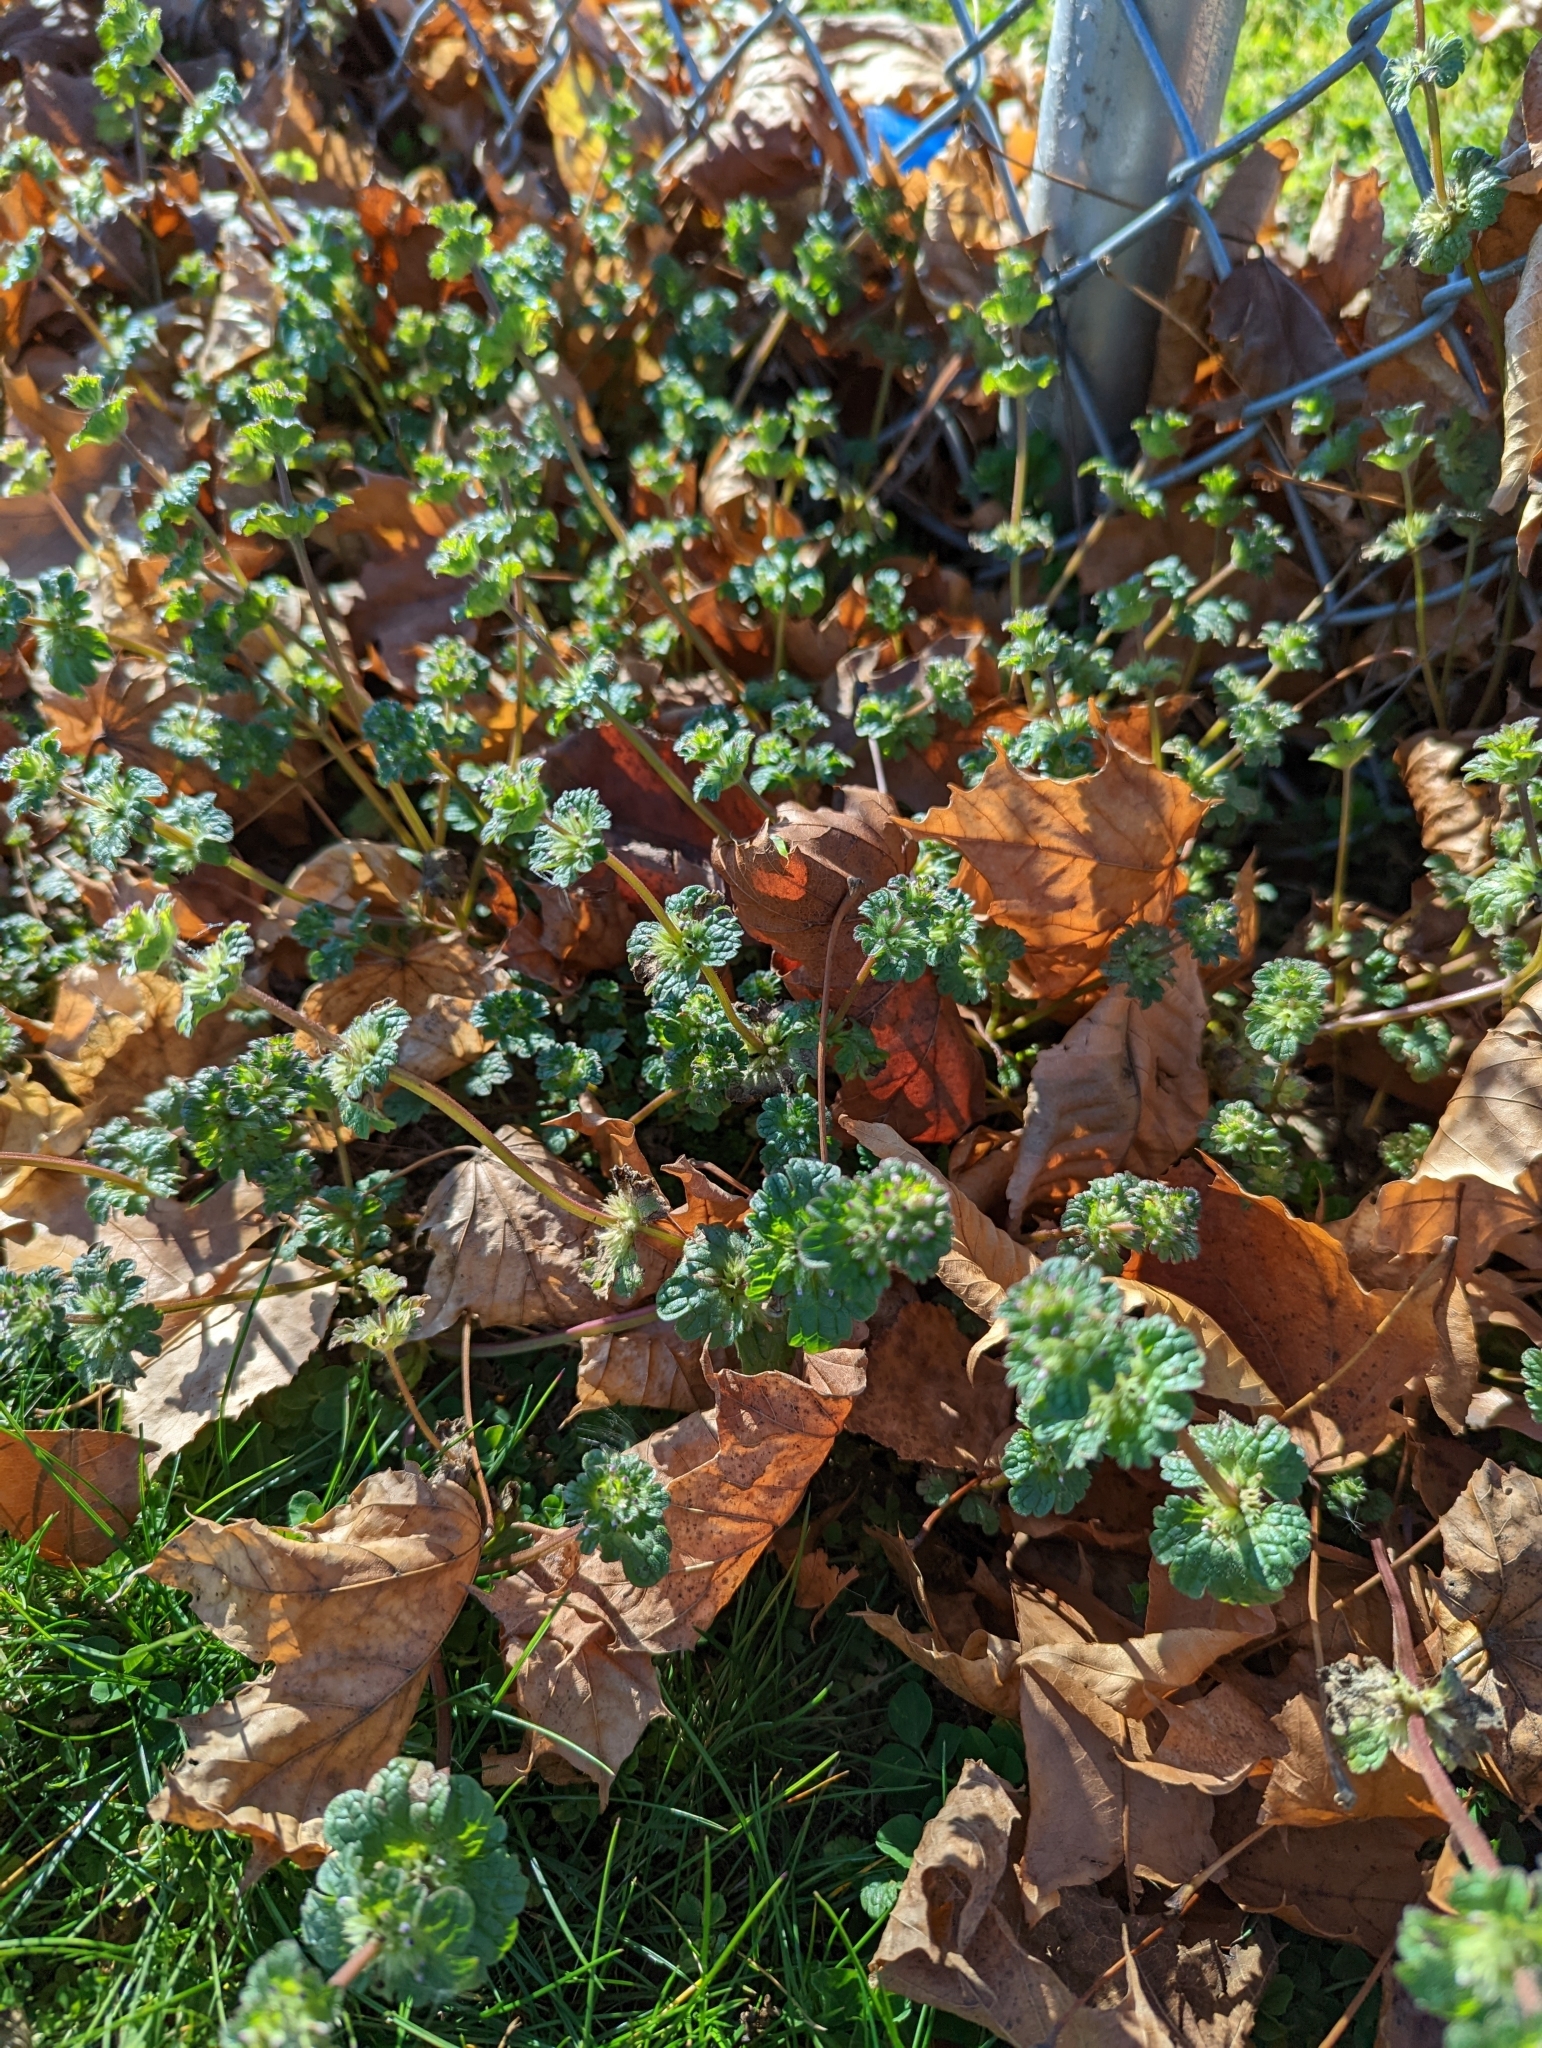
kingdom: Plantae
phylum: Tracheophyta
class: Magnoliopsida
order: Lamiales
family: Lamiaceae
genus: Lamium
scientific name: Lamium amplexicaule
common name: Henbit dead-nettle
